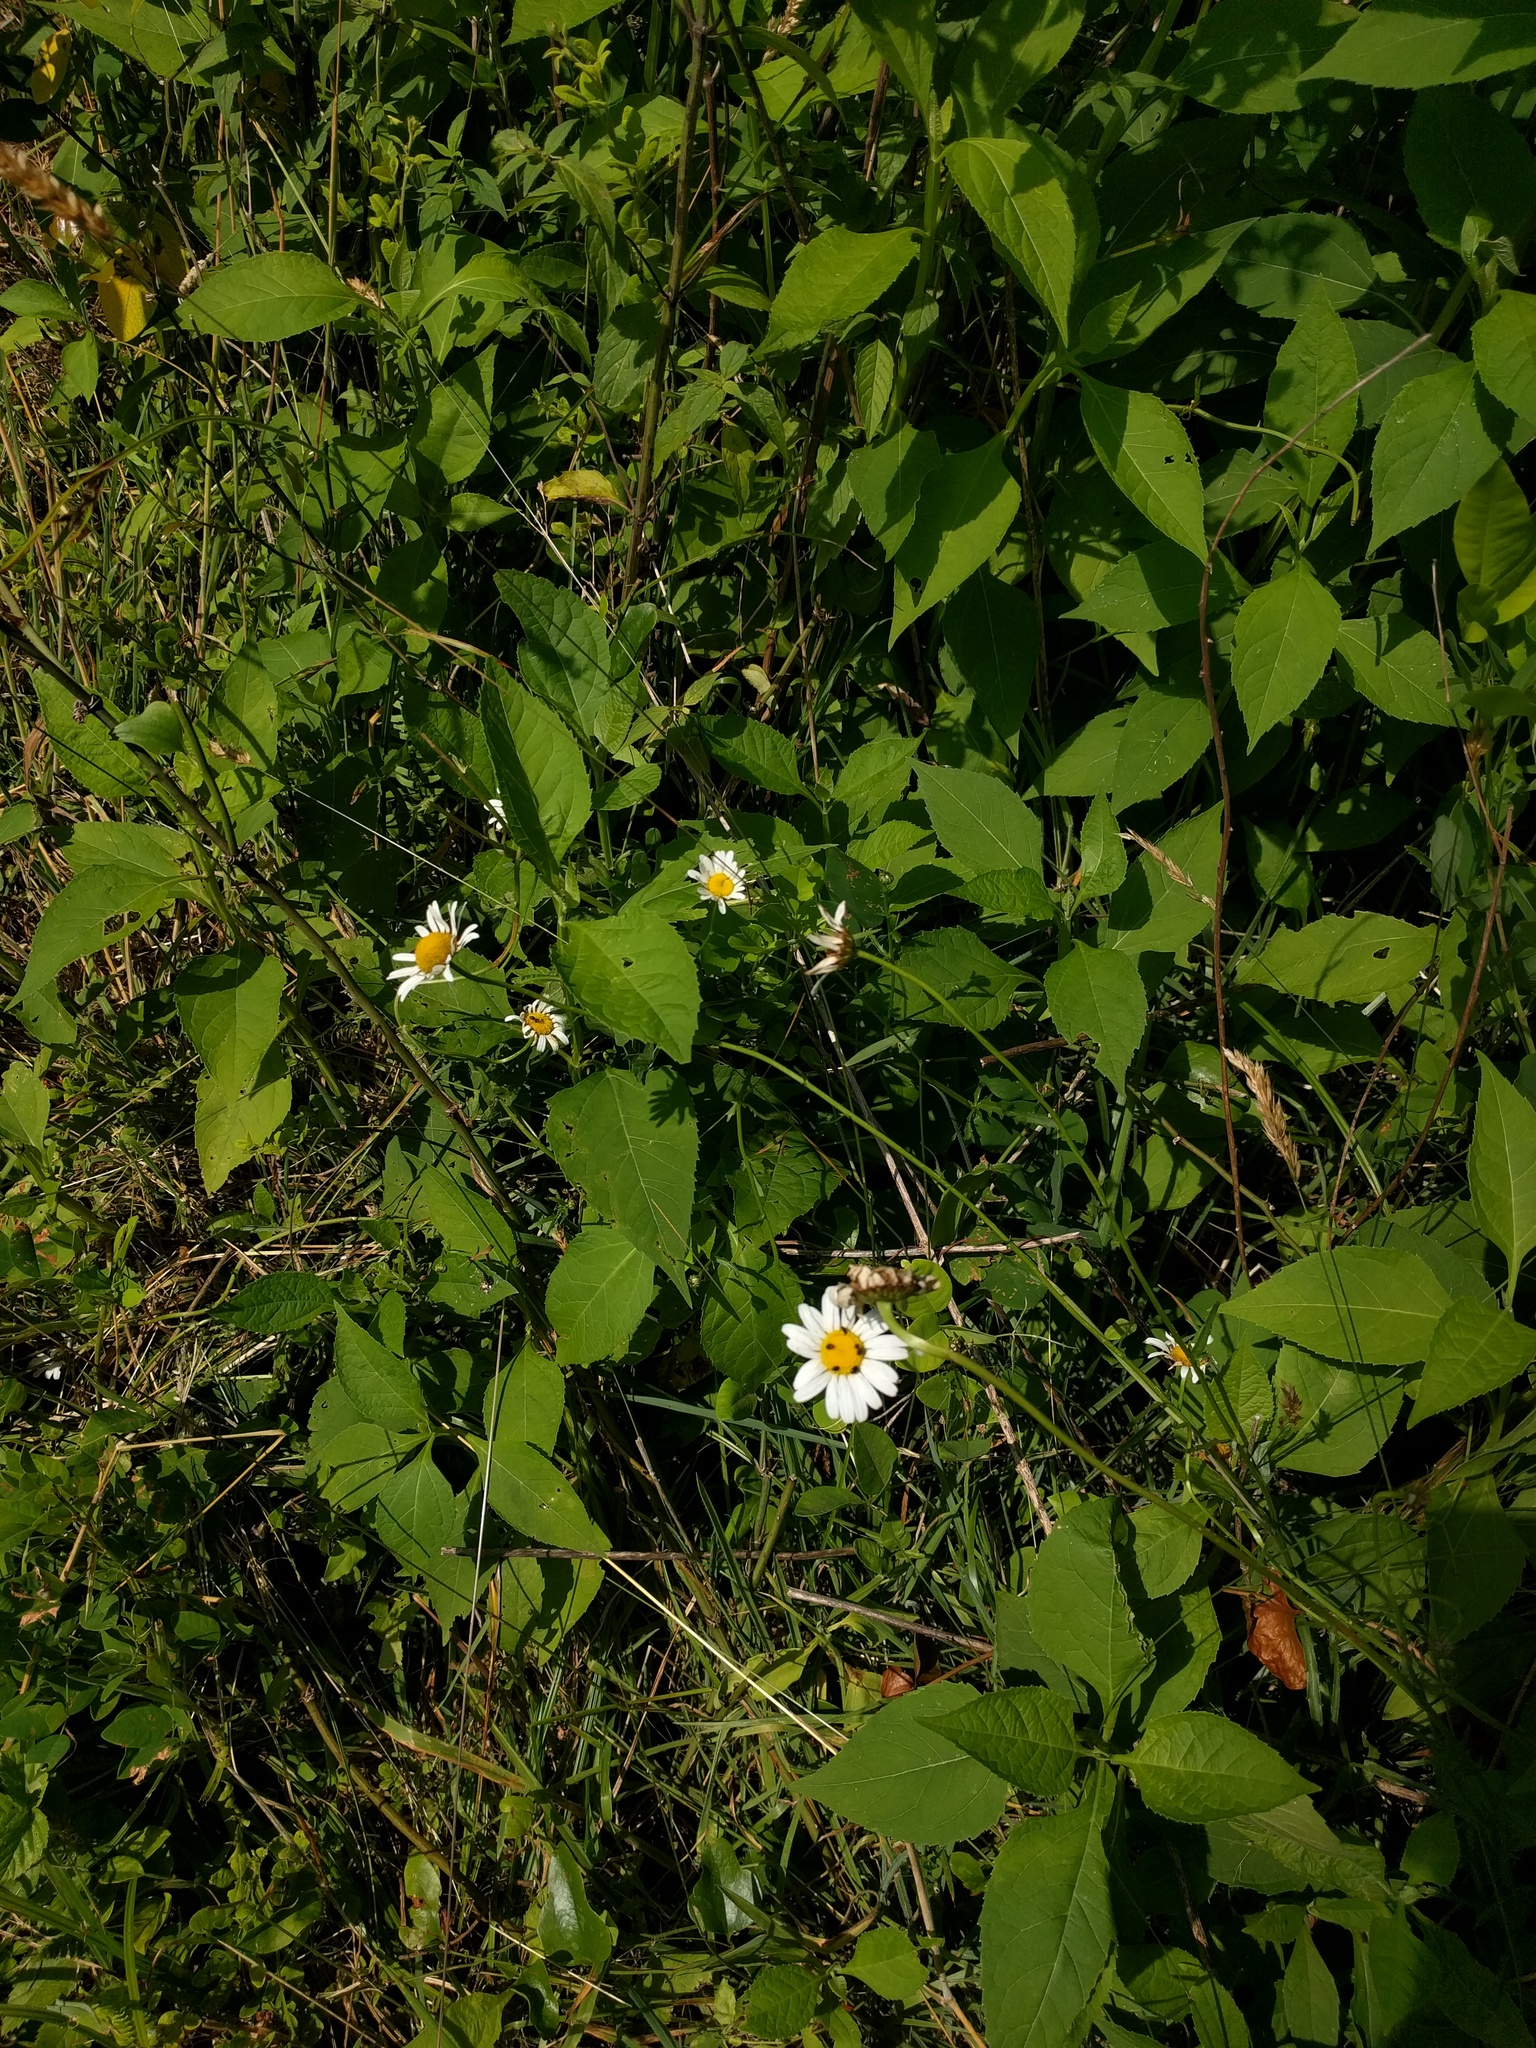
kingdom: Plantae
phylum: Tracheophyta
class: Magnoliopsida
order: Asterales
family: Asteraceae
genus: Leucanthemum
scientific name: Leucanthemum vulgare
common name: Oxeye daisy
